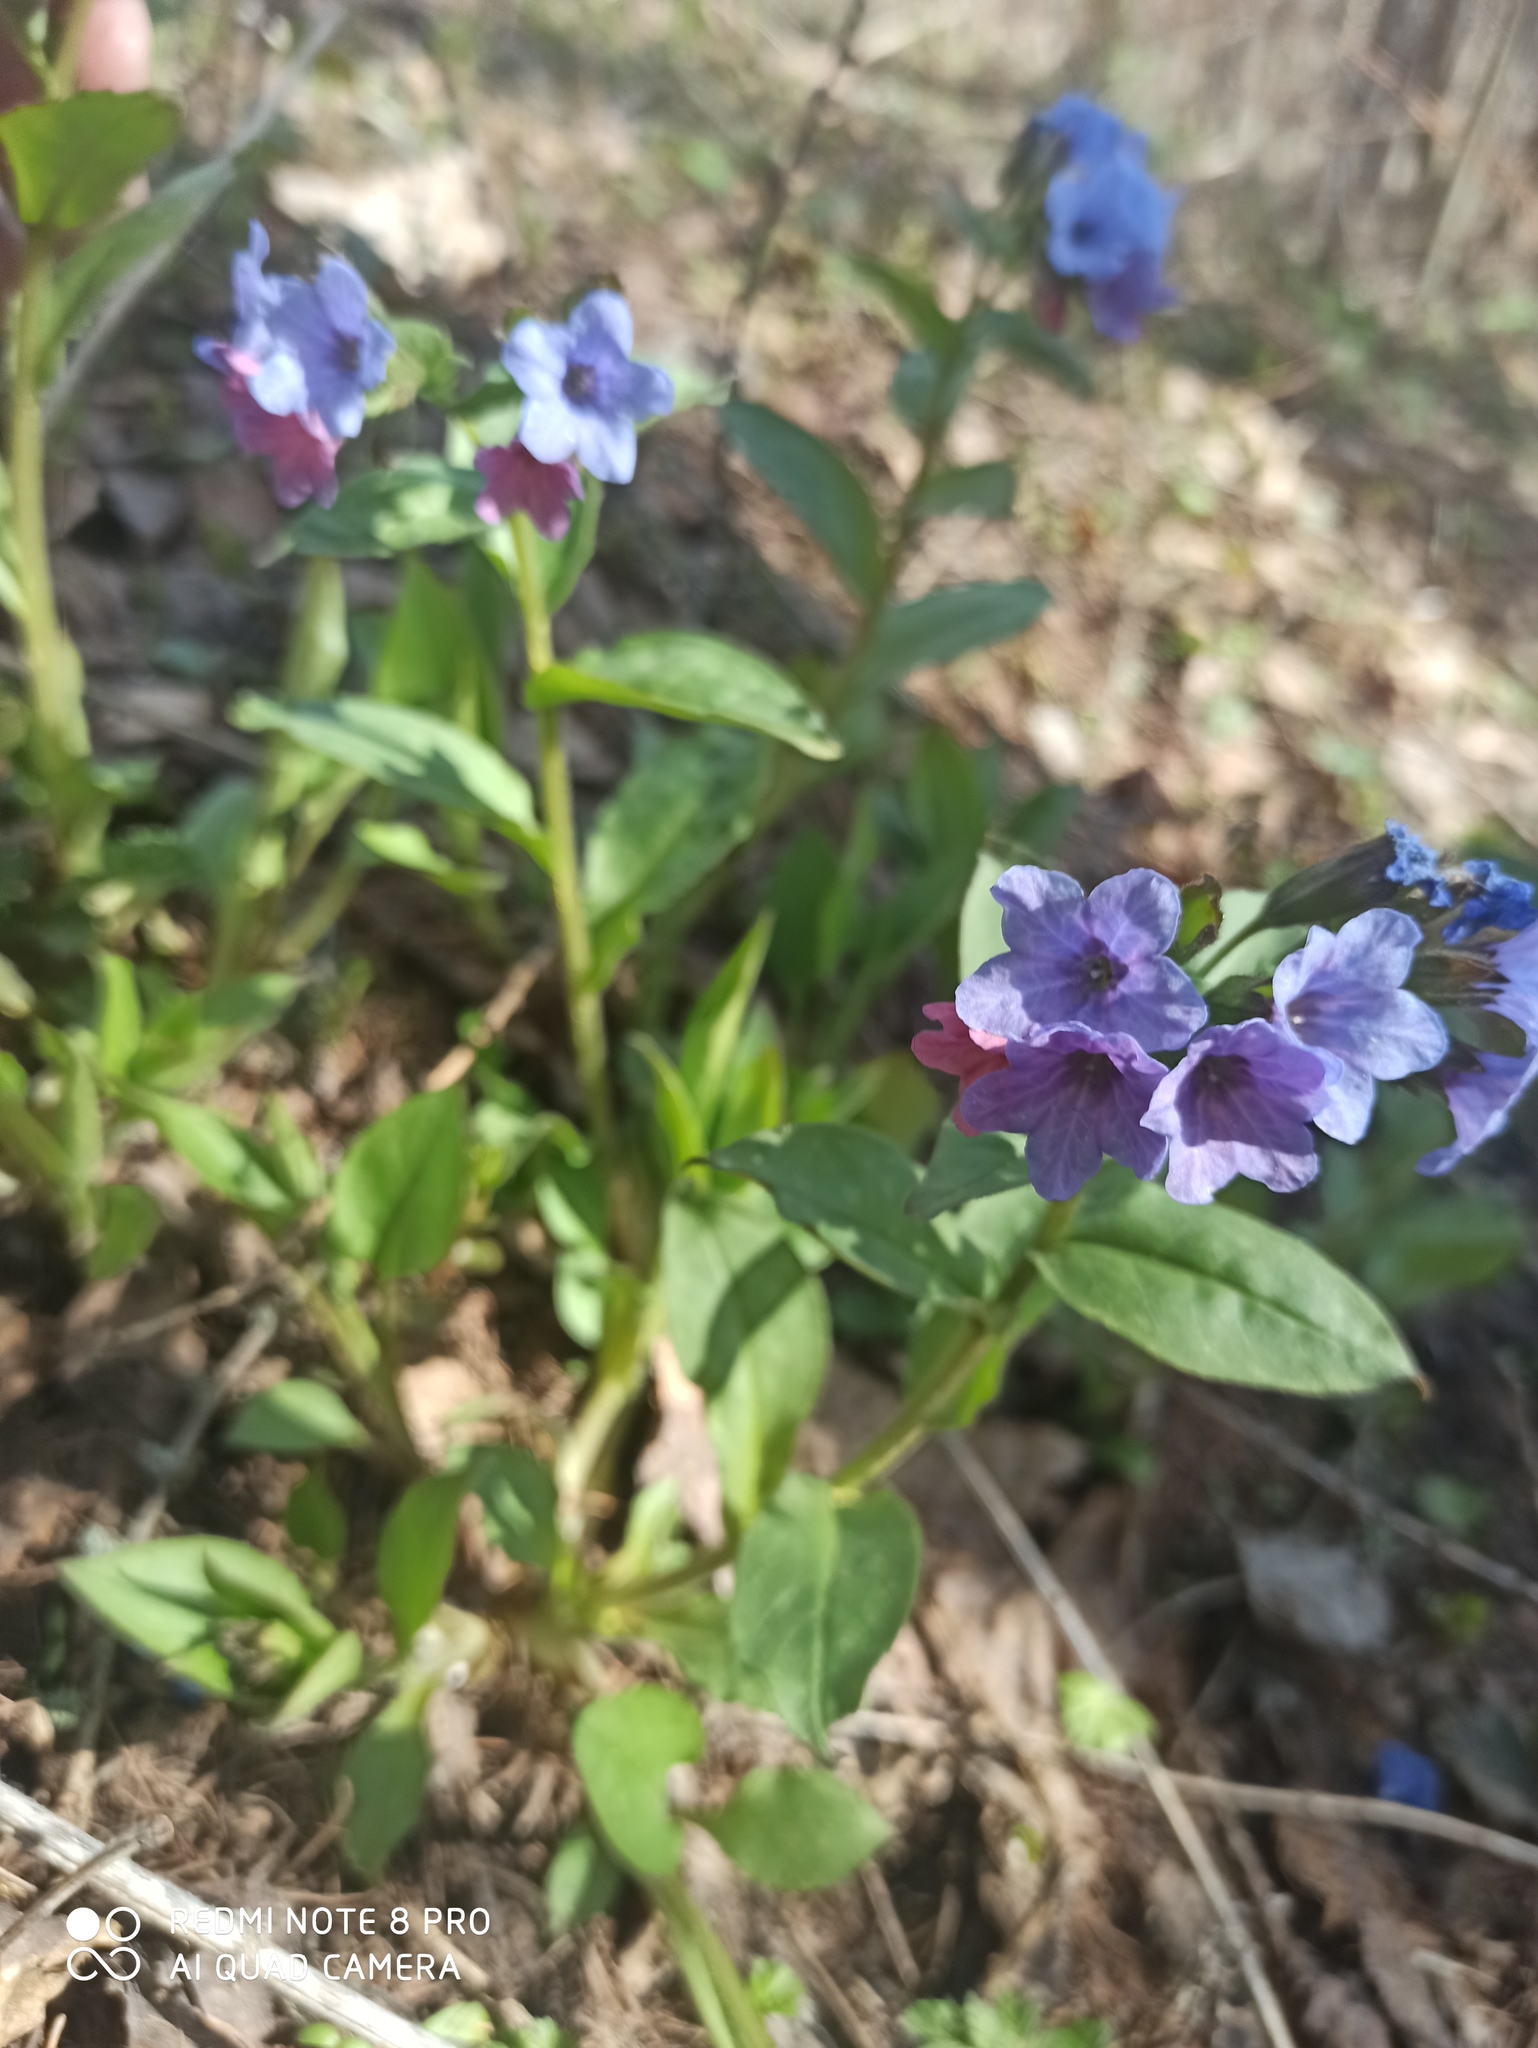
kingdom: Plantae
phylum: Tracheophyta
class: Magnoliopsida
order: Boraginales
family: Boraginaceae
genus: Pulmonaria
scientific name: Pulmonaria obscura
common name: Suffolk lungwort
